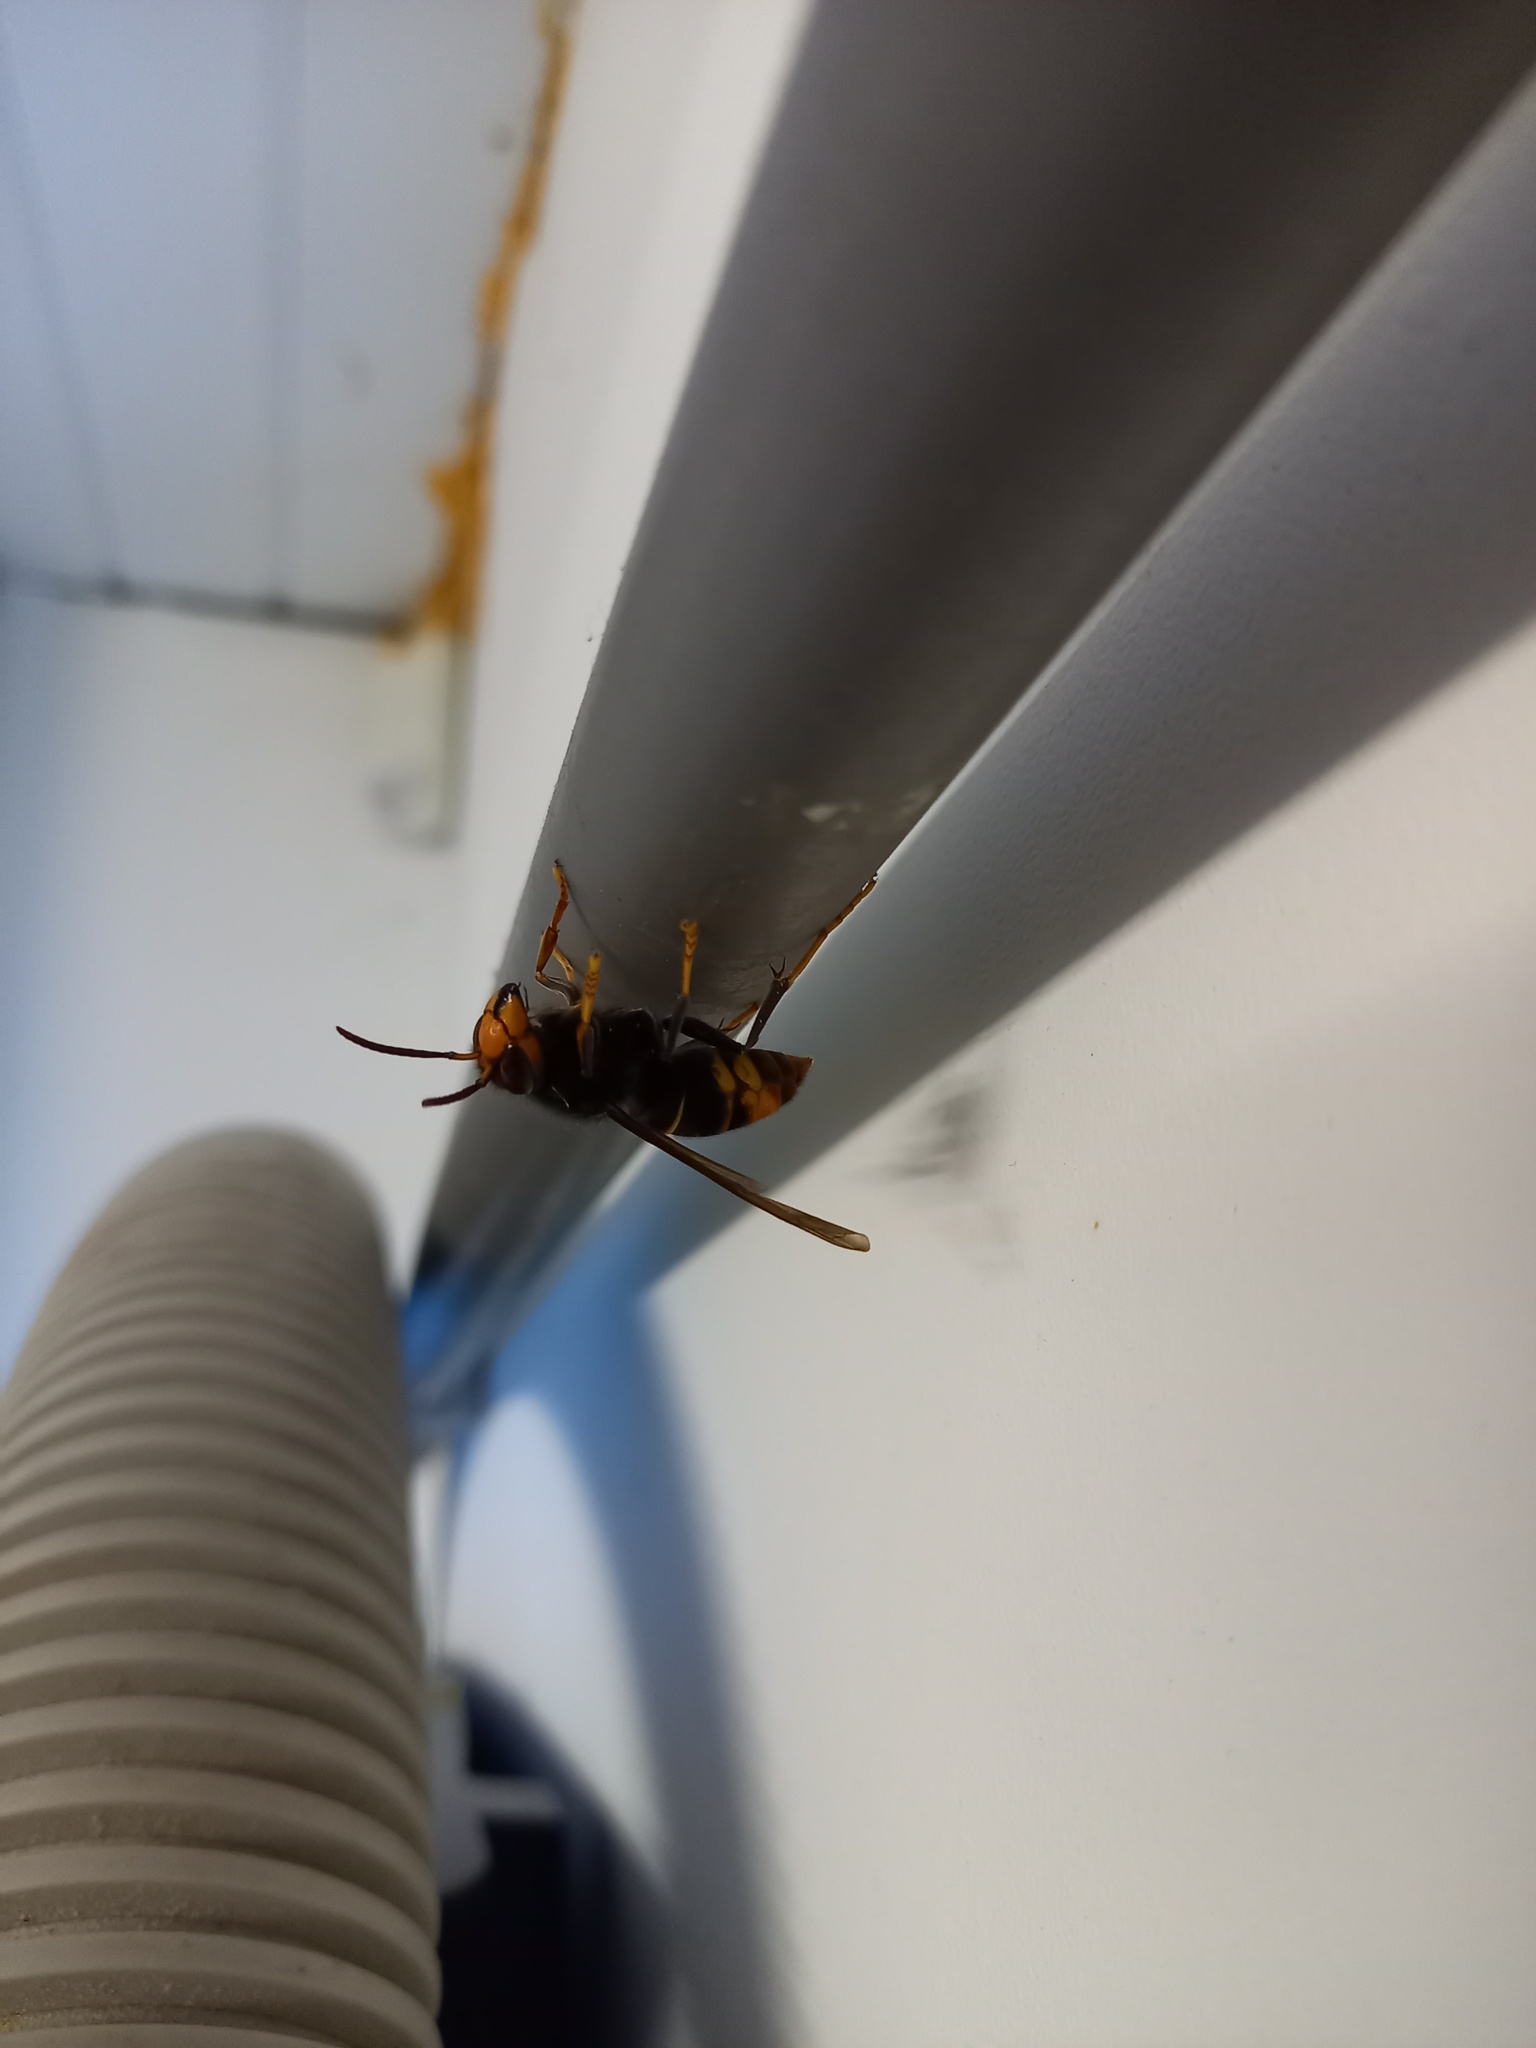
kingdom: Animalia
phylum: Arthropoda
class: Insecta
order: Hymenoptera
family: Vespidae
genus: Vespa
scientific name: Vespa velutina
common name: Asian hornet
